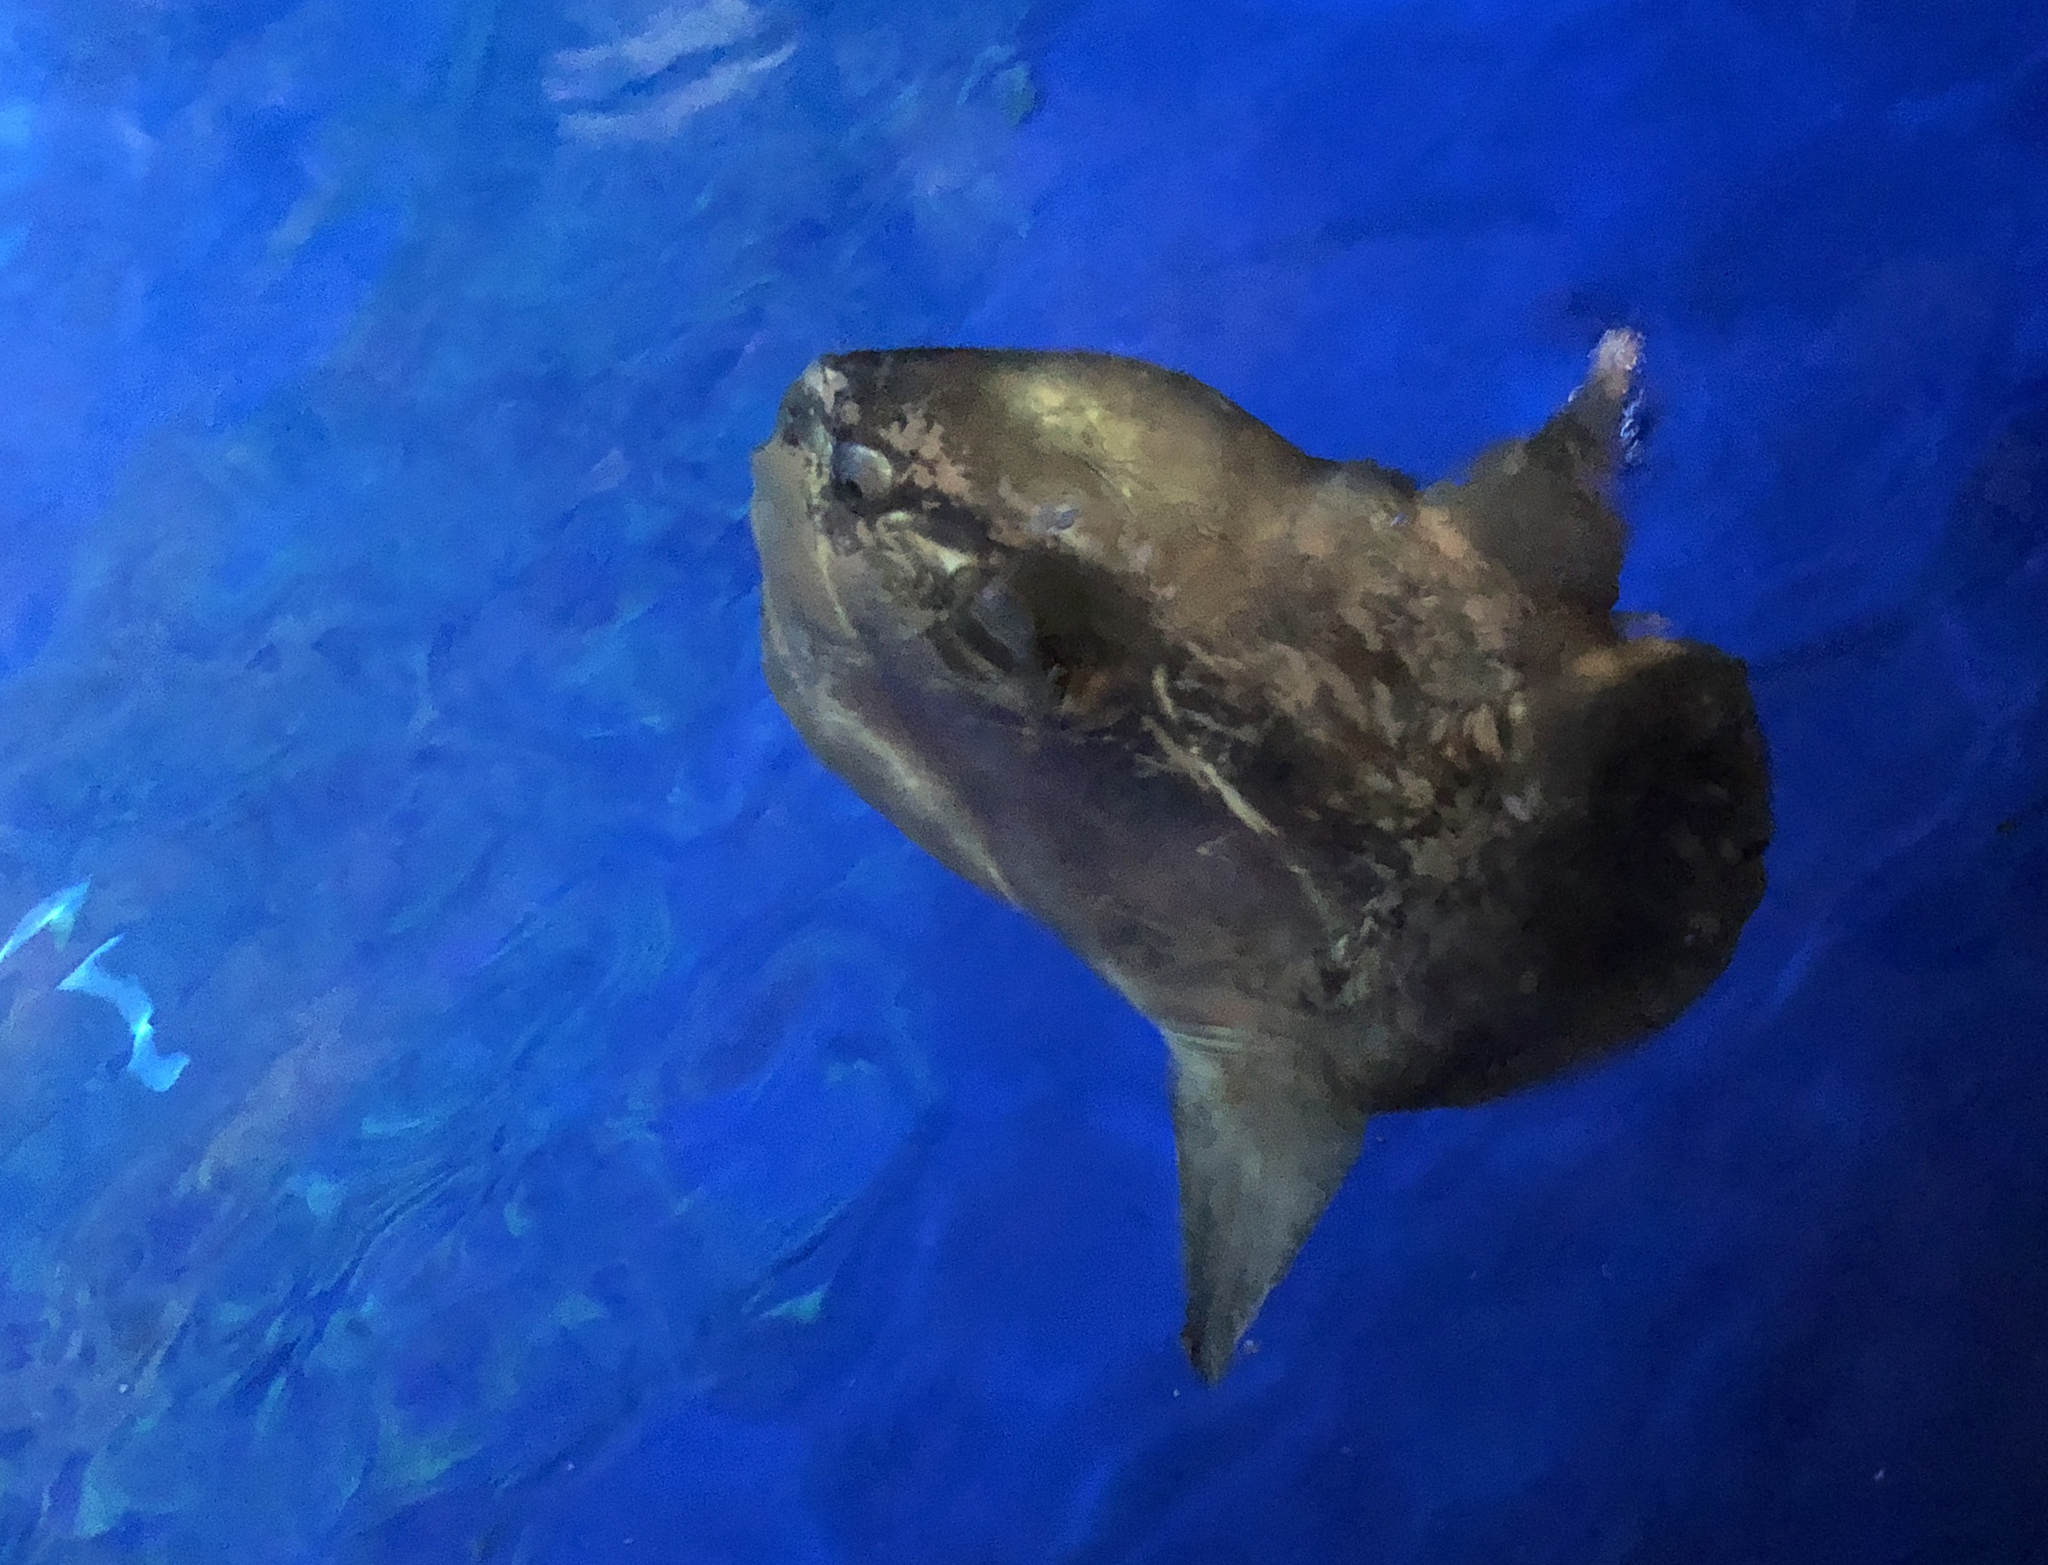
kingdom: Animalia
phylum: Chordata
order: Tetraodontiformes
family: Molidae
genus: Mola
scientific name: Mola mola
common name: Ocean sunfish
